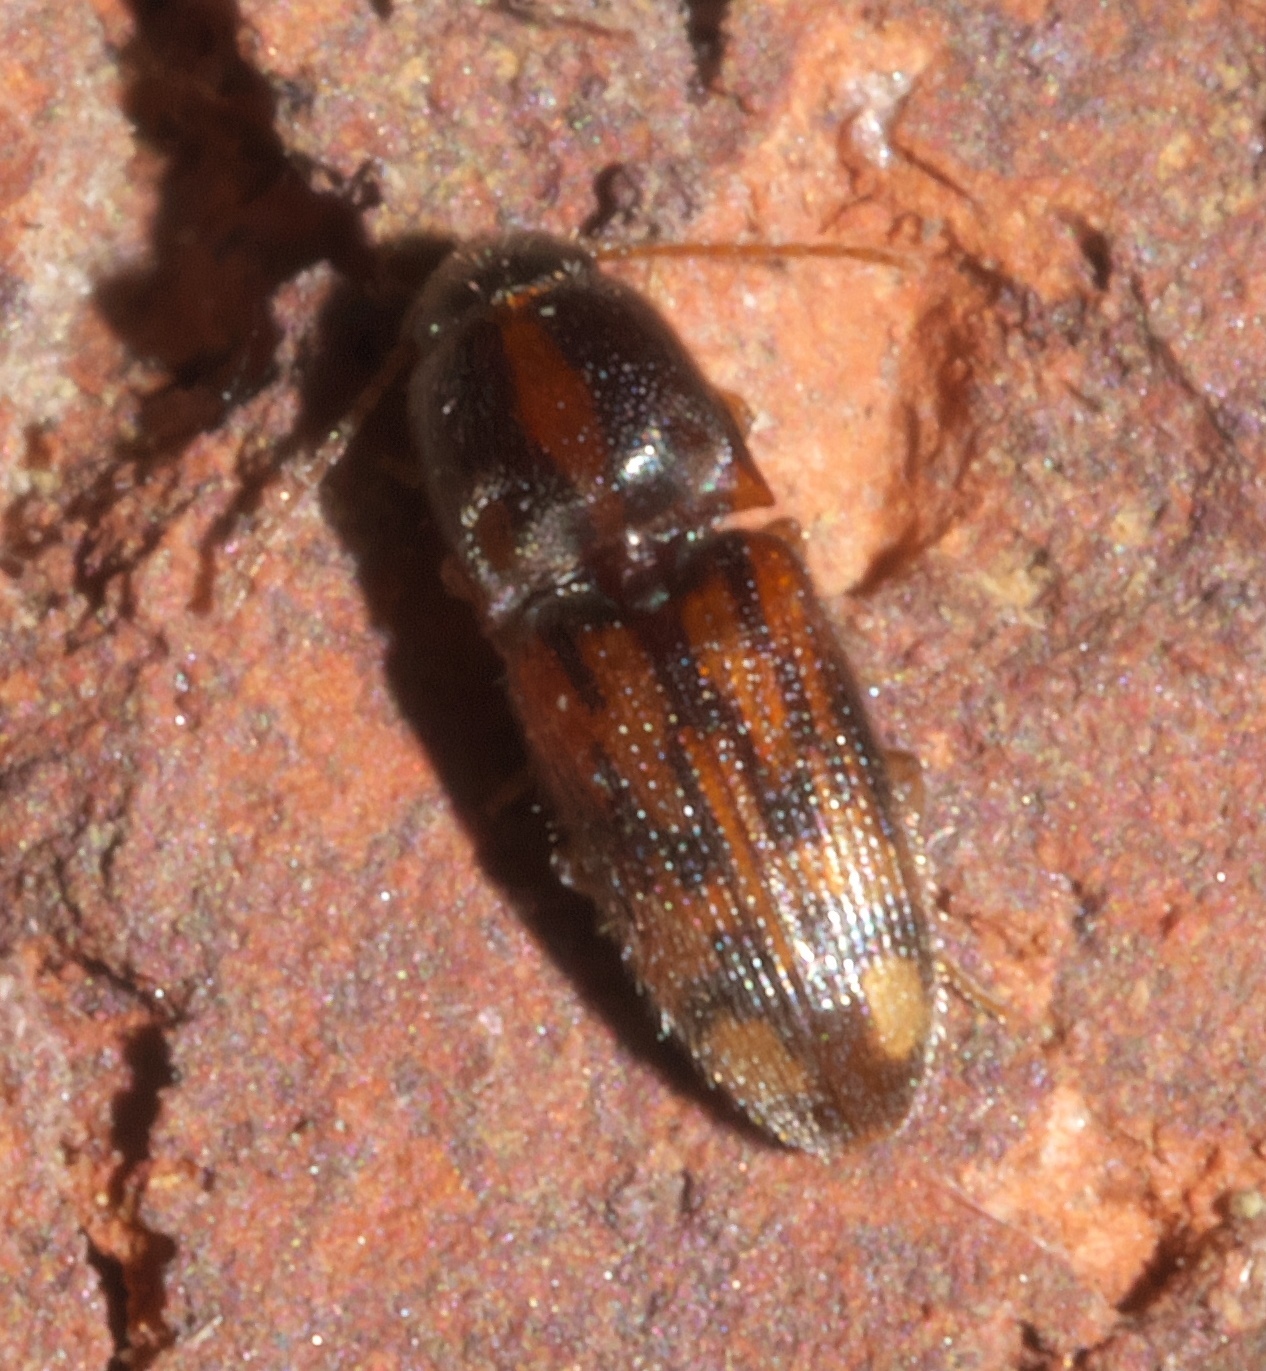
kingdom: Animalia
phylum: Arthropoda
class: Insecta
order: Coleoptera
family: Elateridae
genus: Monocrepidius
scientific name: Monocrepidius bellus
